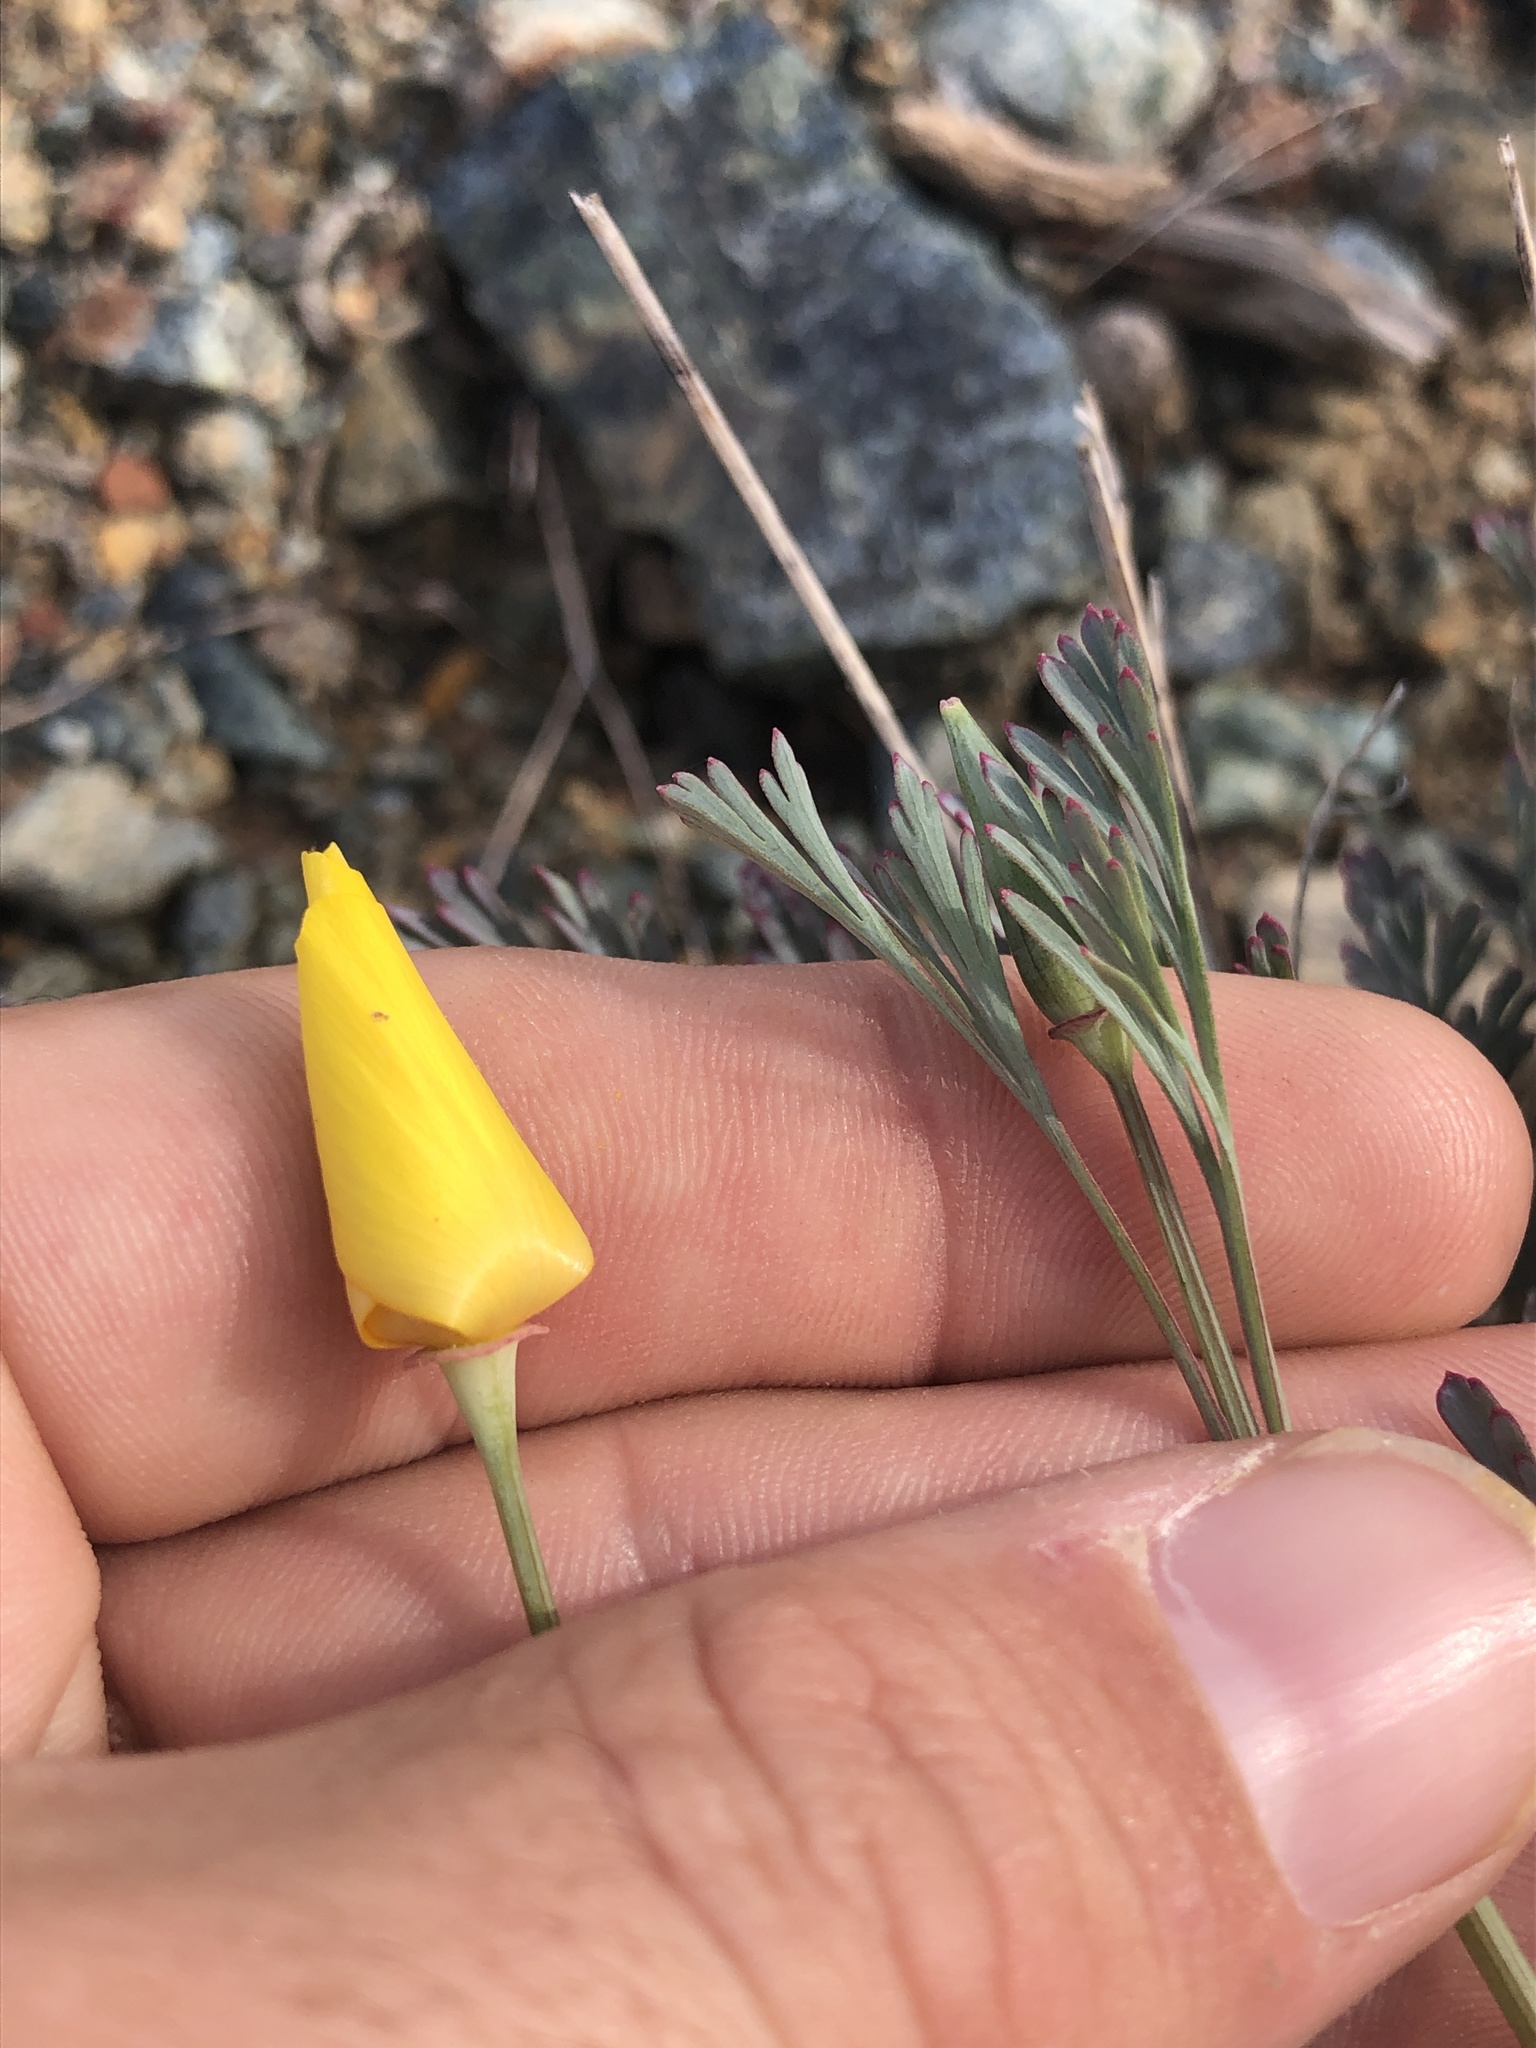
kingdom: Plantae
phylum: Tracheophyta
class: Magnoliopsida
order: Ranunculales
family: Papaveraceae
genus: Eschscholzia
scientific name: Eschscholzia californica
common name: California poppy
